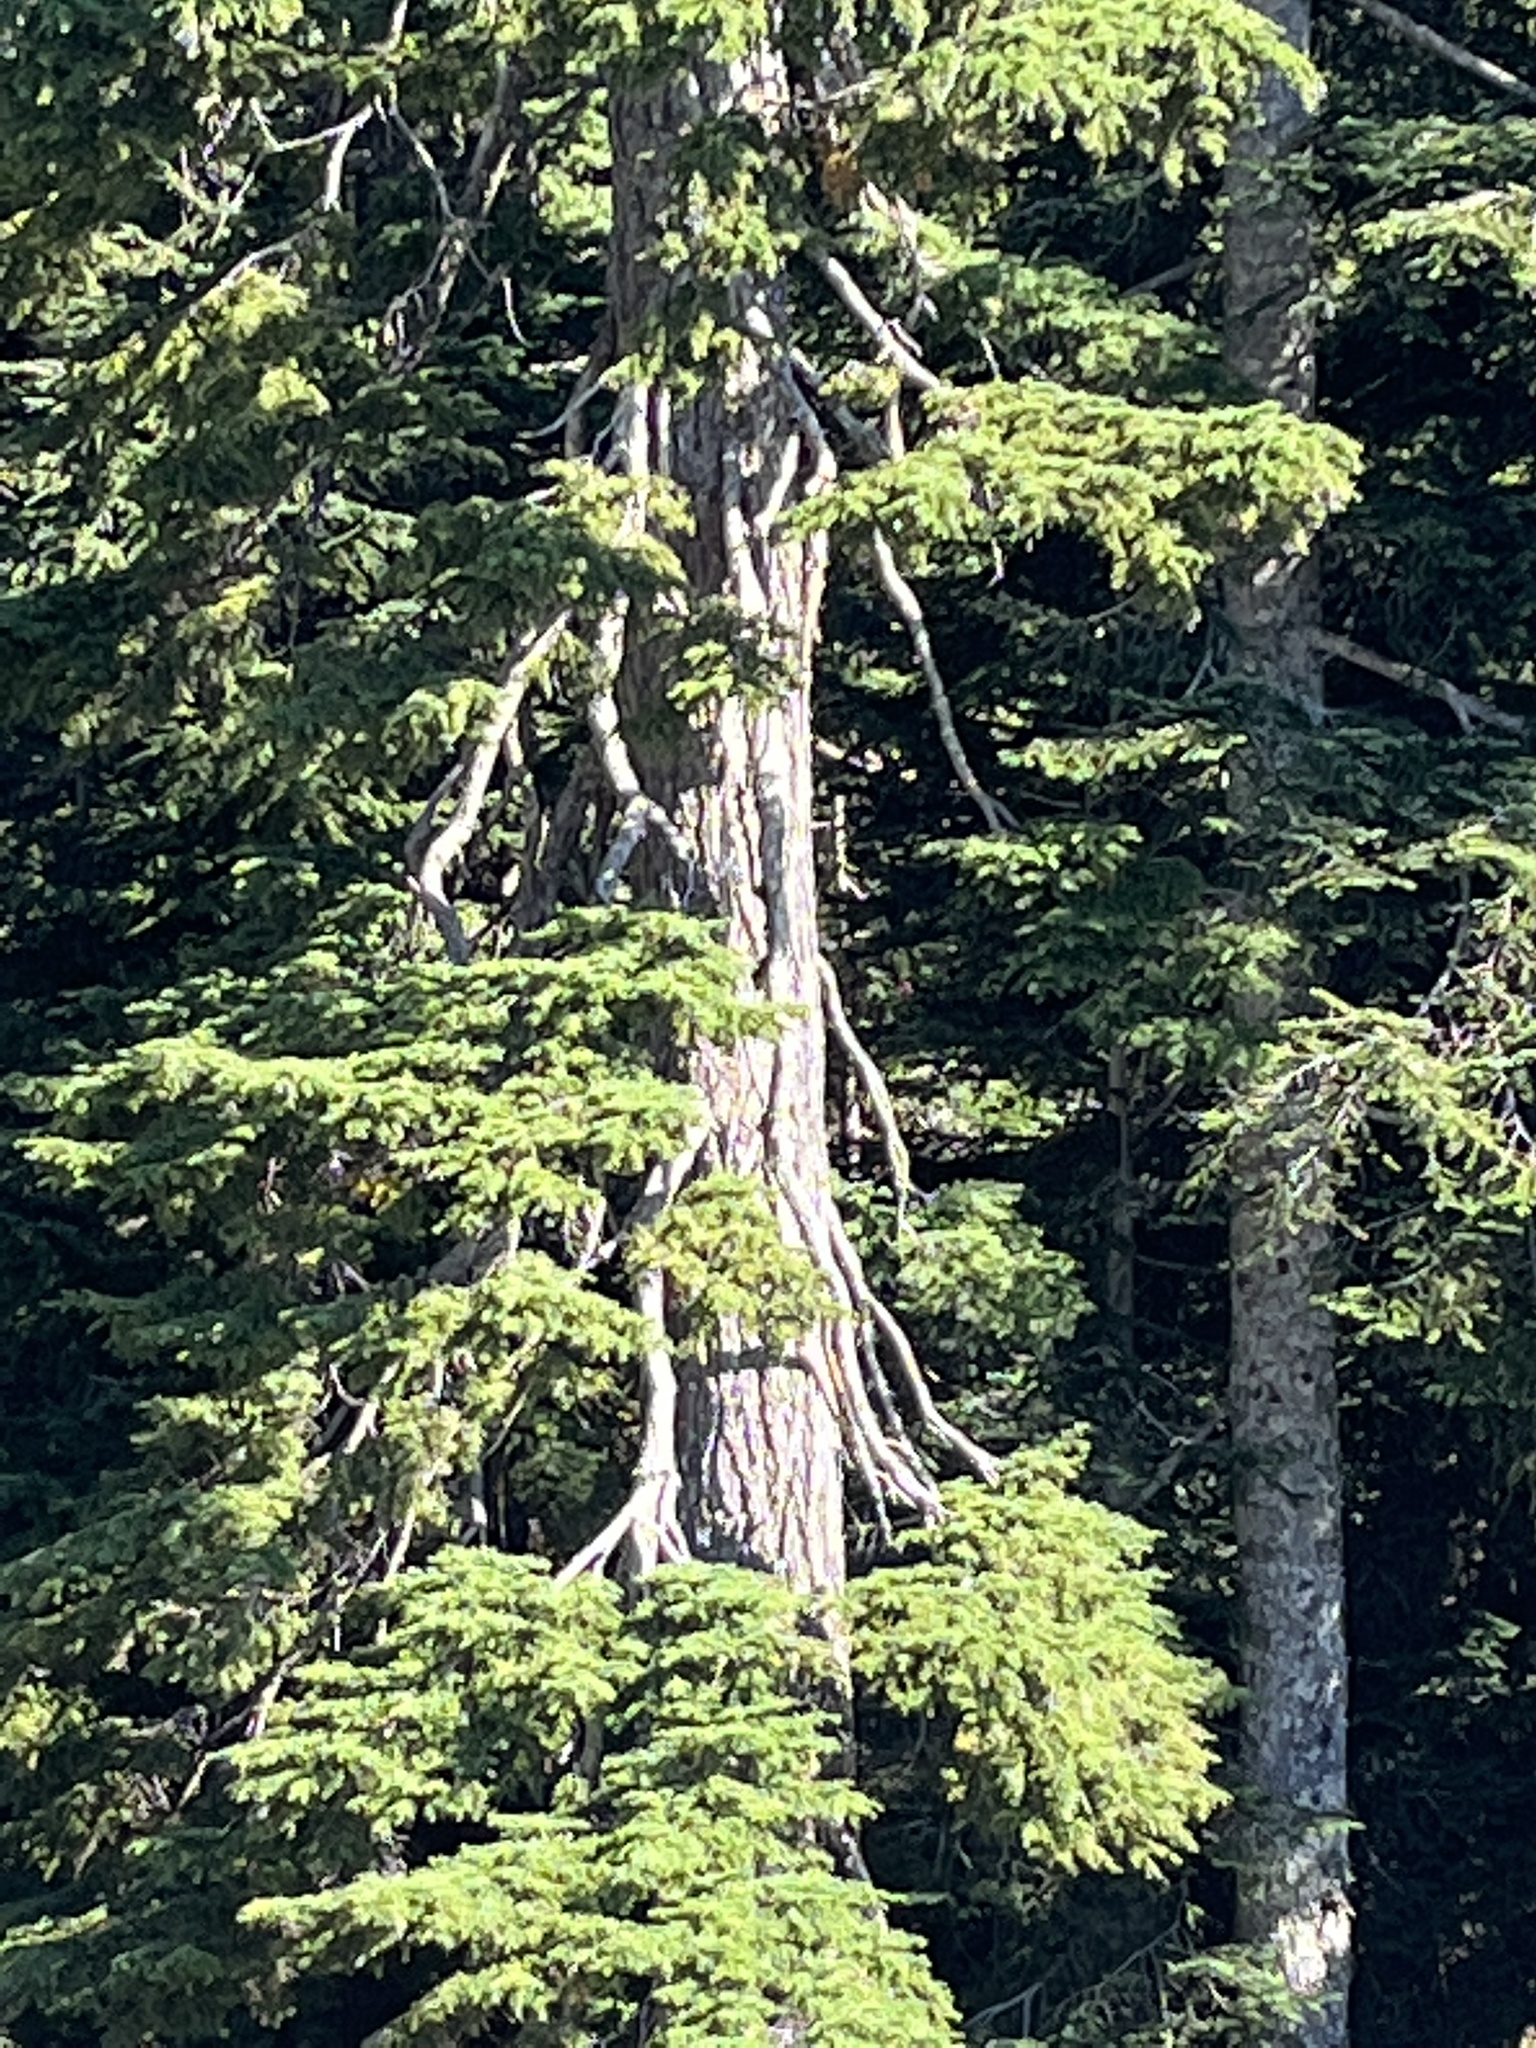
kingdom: Plantae
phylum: Tracheophyta
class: Pinopsida
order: Pinales
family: Cupressaceae
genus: Xanthocyparis
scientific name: Xanthocyparis nootkatensis
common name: Nootka cypress
